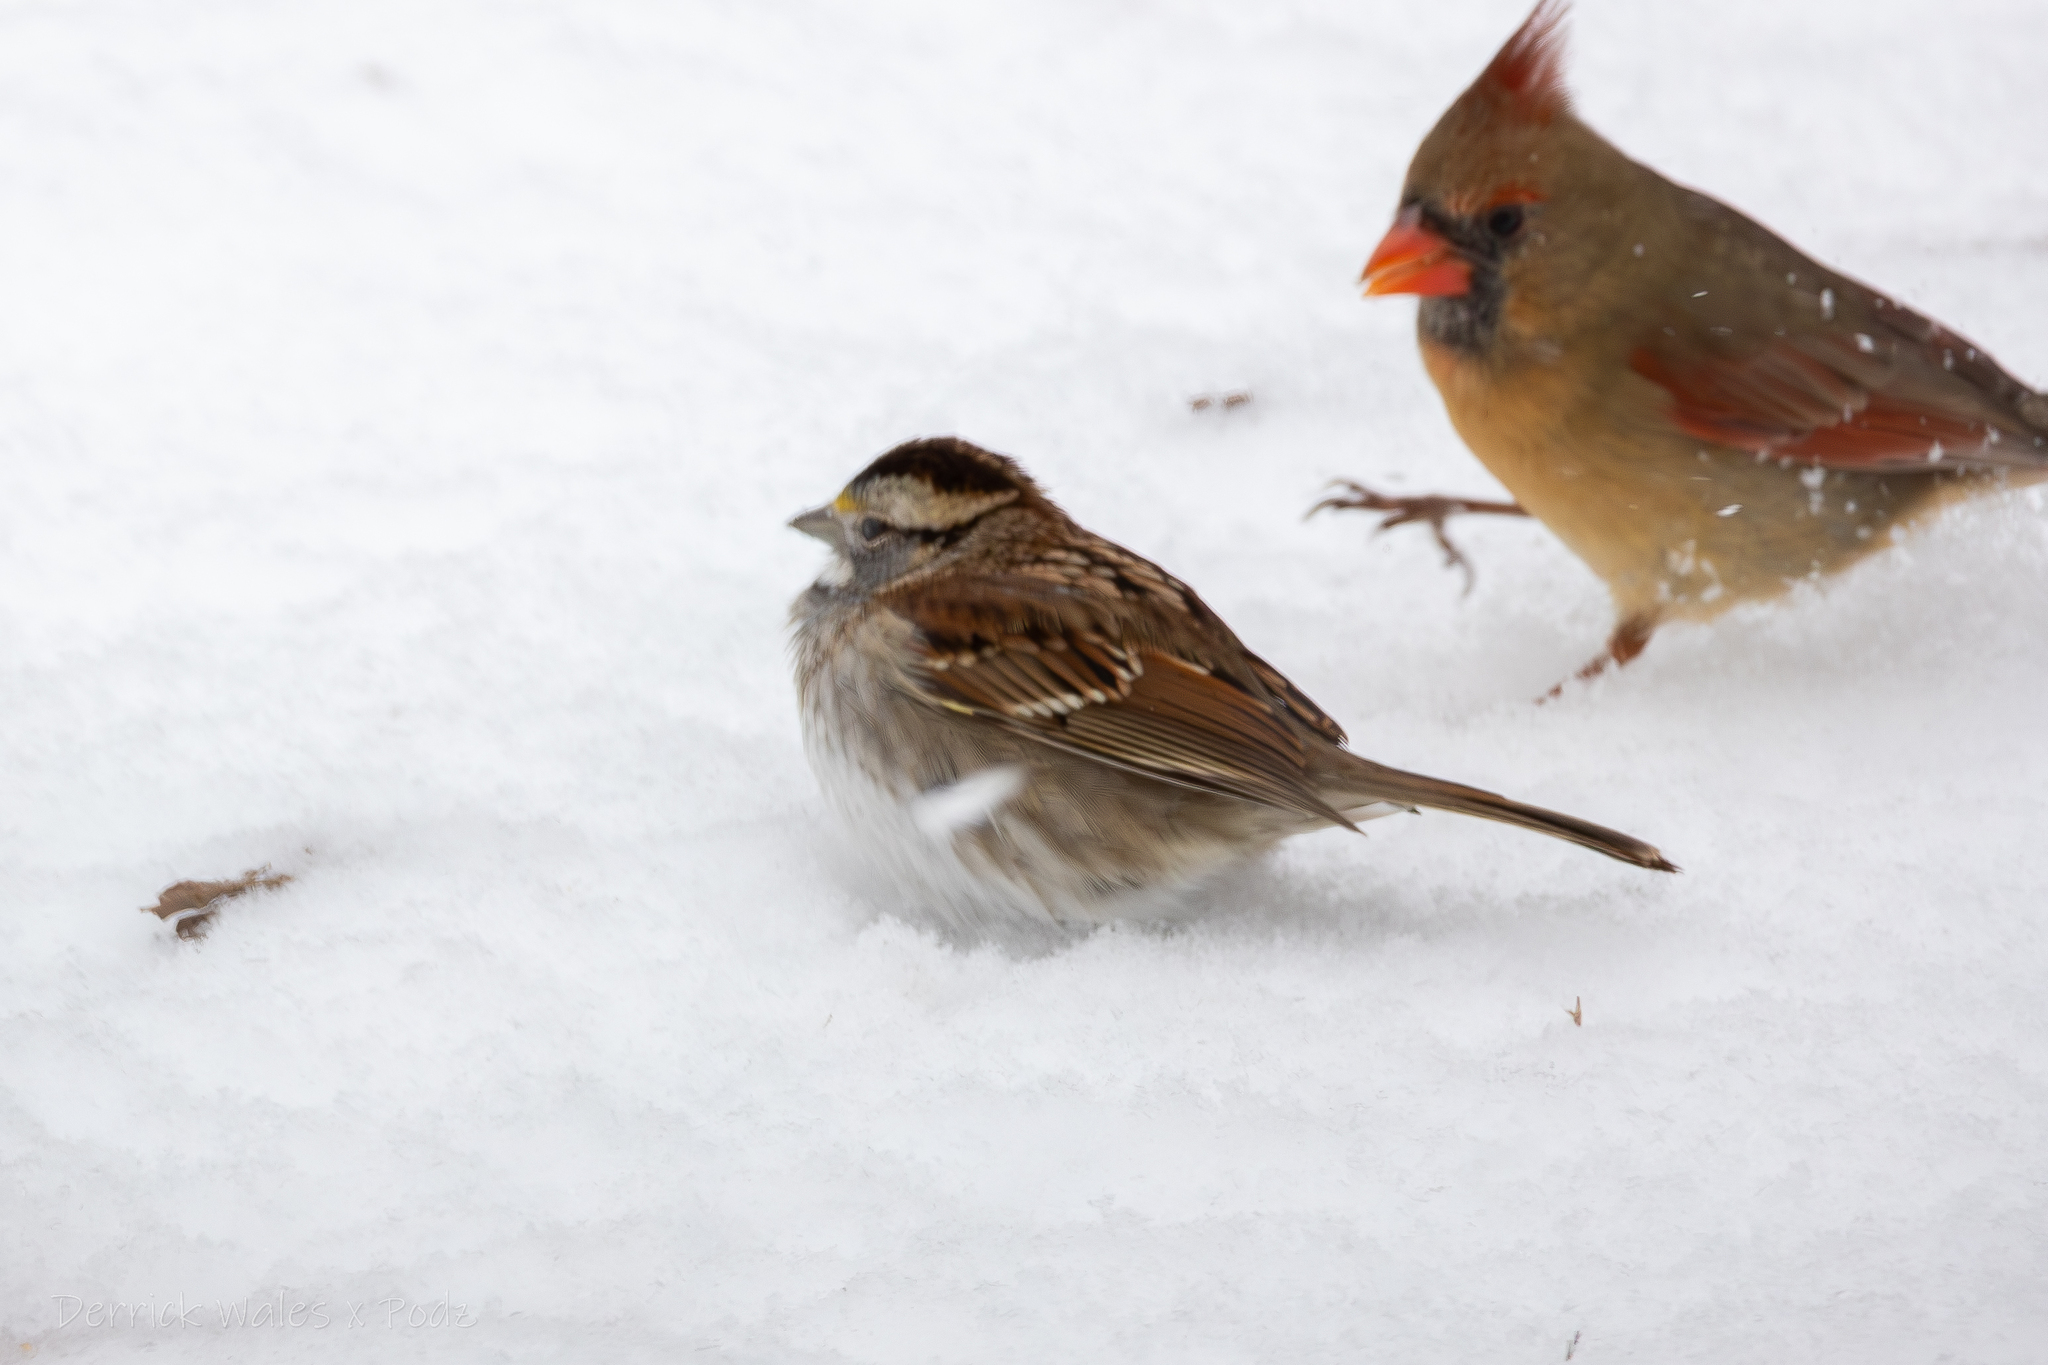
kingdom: Animalia
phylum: Chordata
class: Aves
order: Passeriformes
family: Passerellidae
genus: Zonotrichia
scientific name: Zonotrichia albicollis
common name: White-throated sparrow
